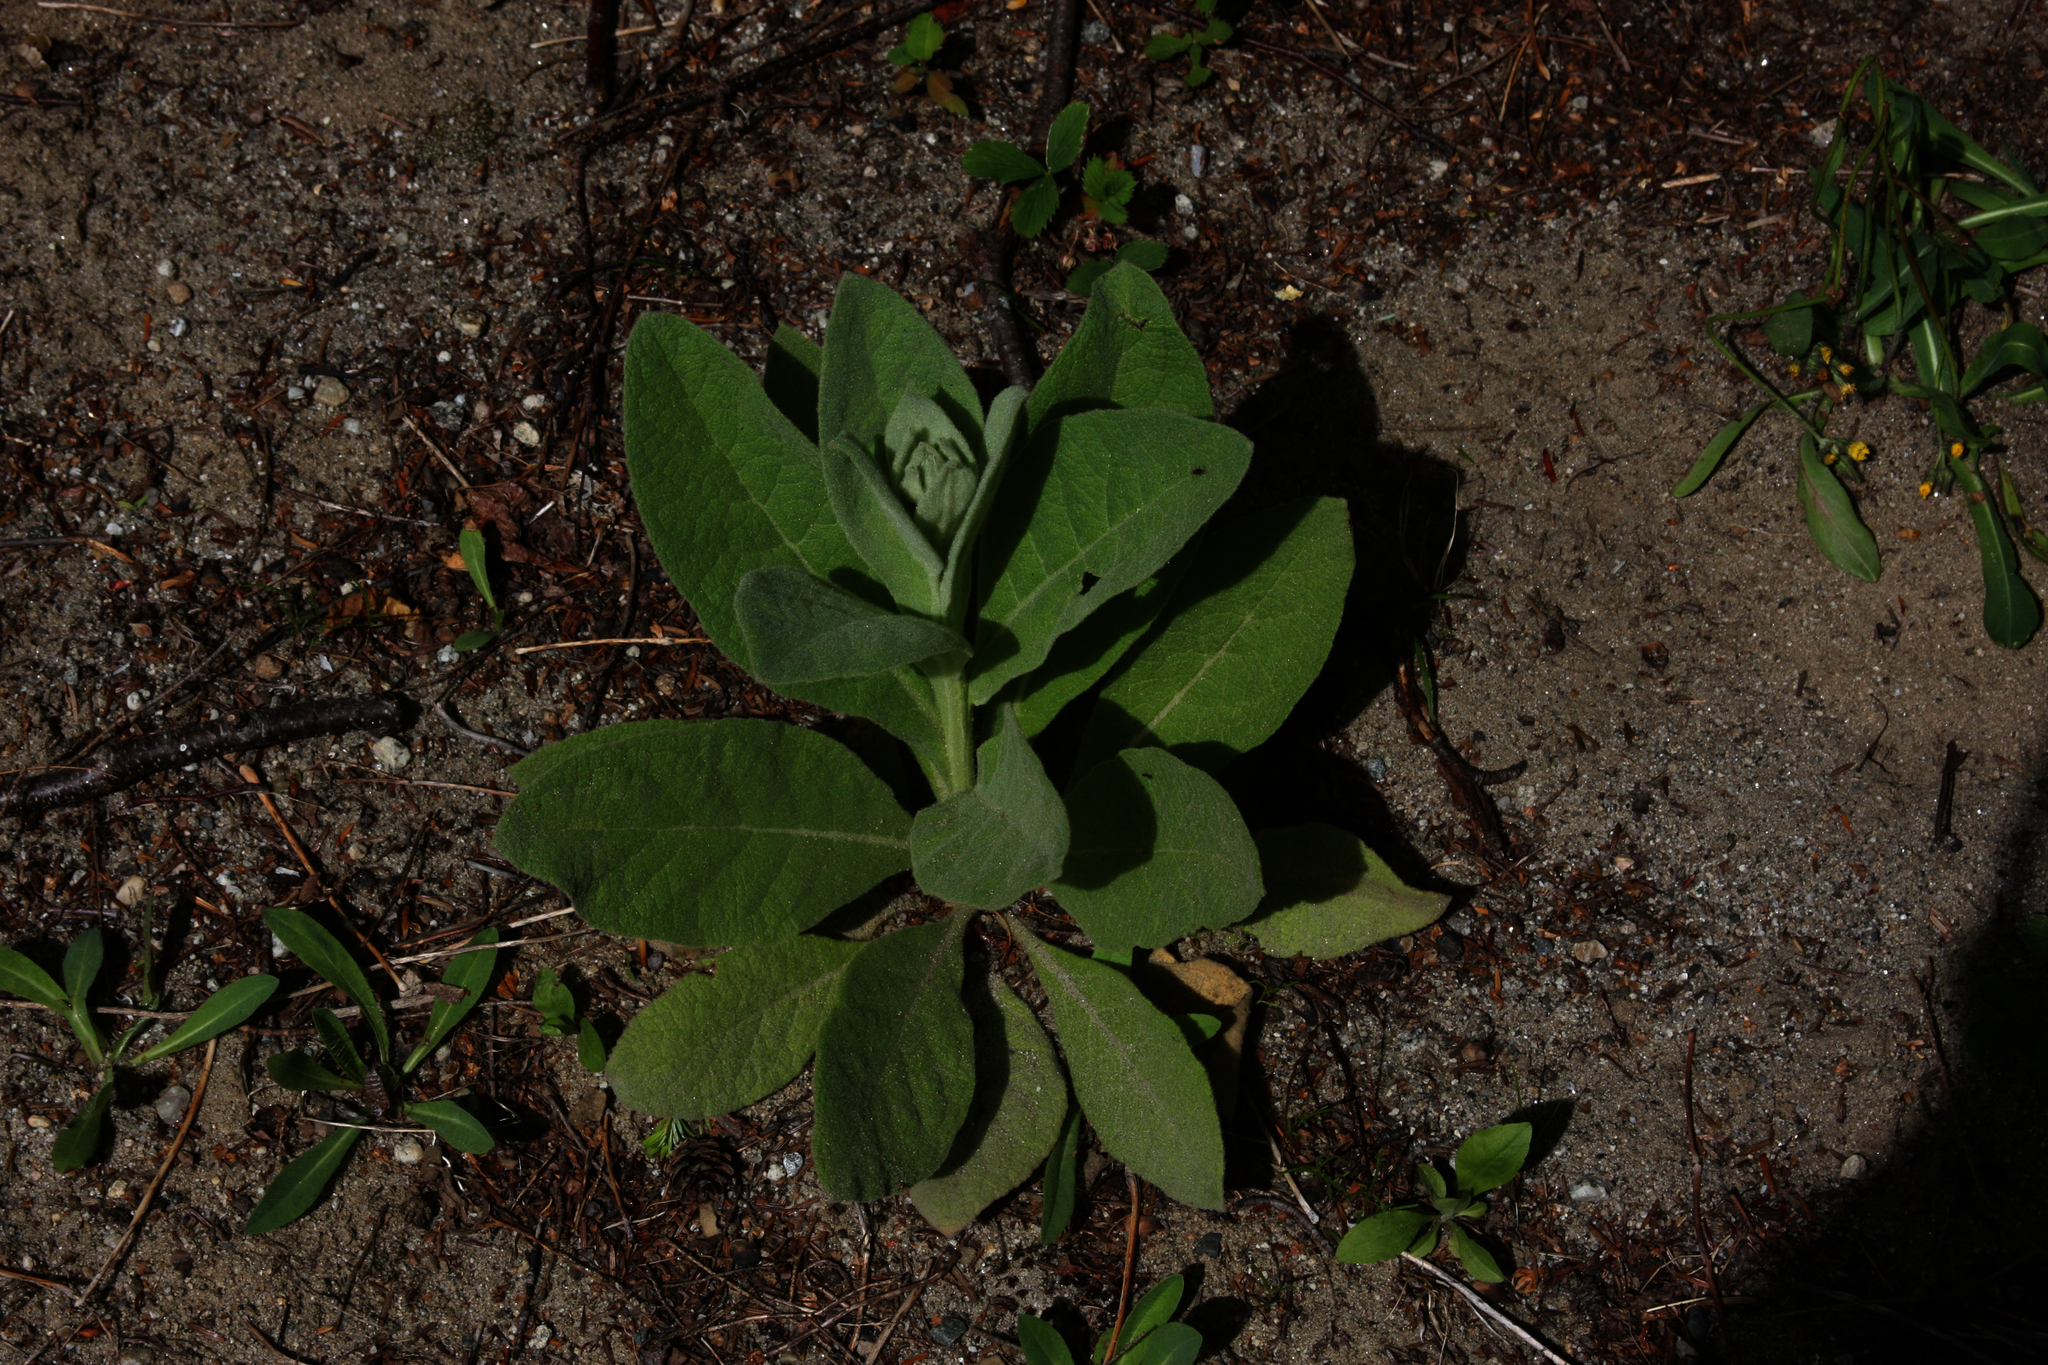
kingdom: Plantae
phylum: Tracheophyta
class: Magnoliopsida
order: Lamiales
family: Scrophulariaceae
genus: Verbascum
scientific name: Verbascum thapsus
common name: Common mullein
